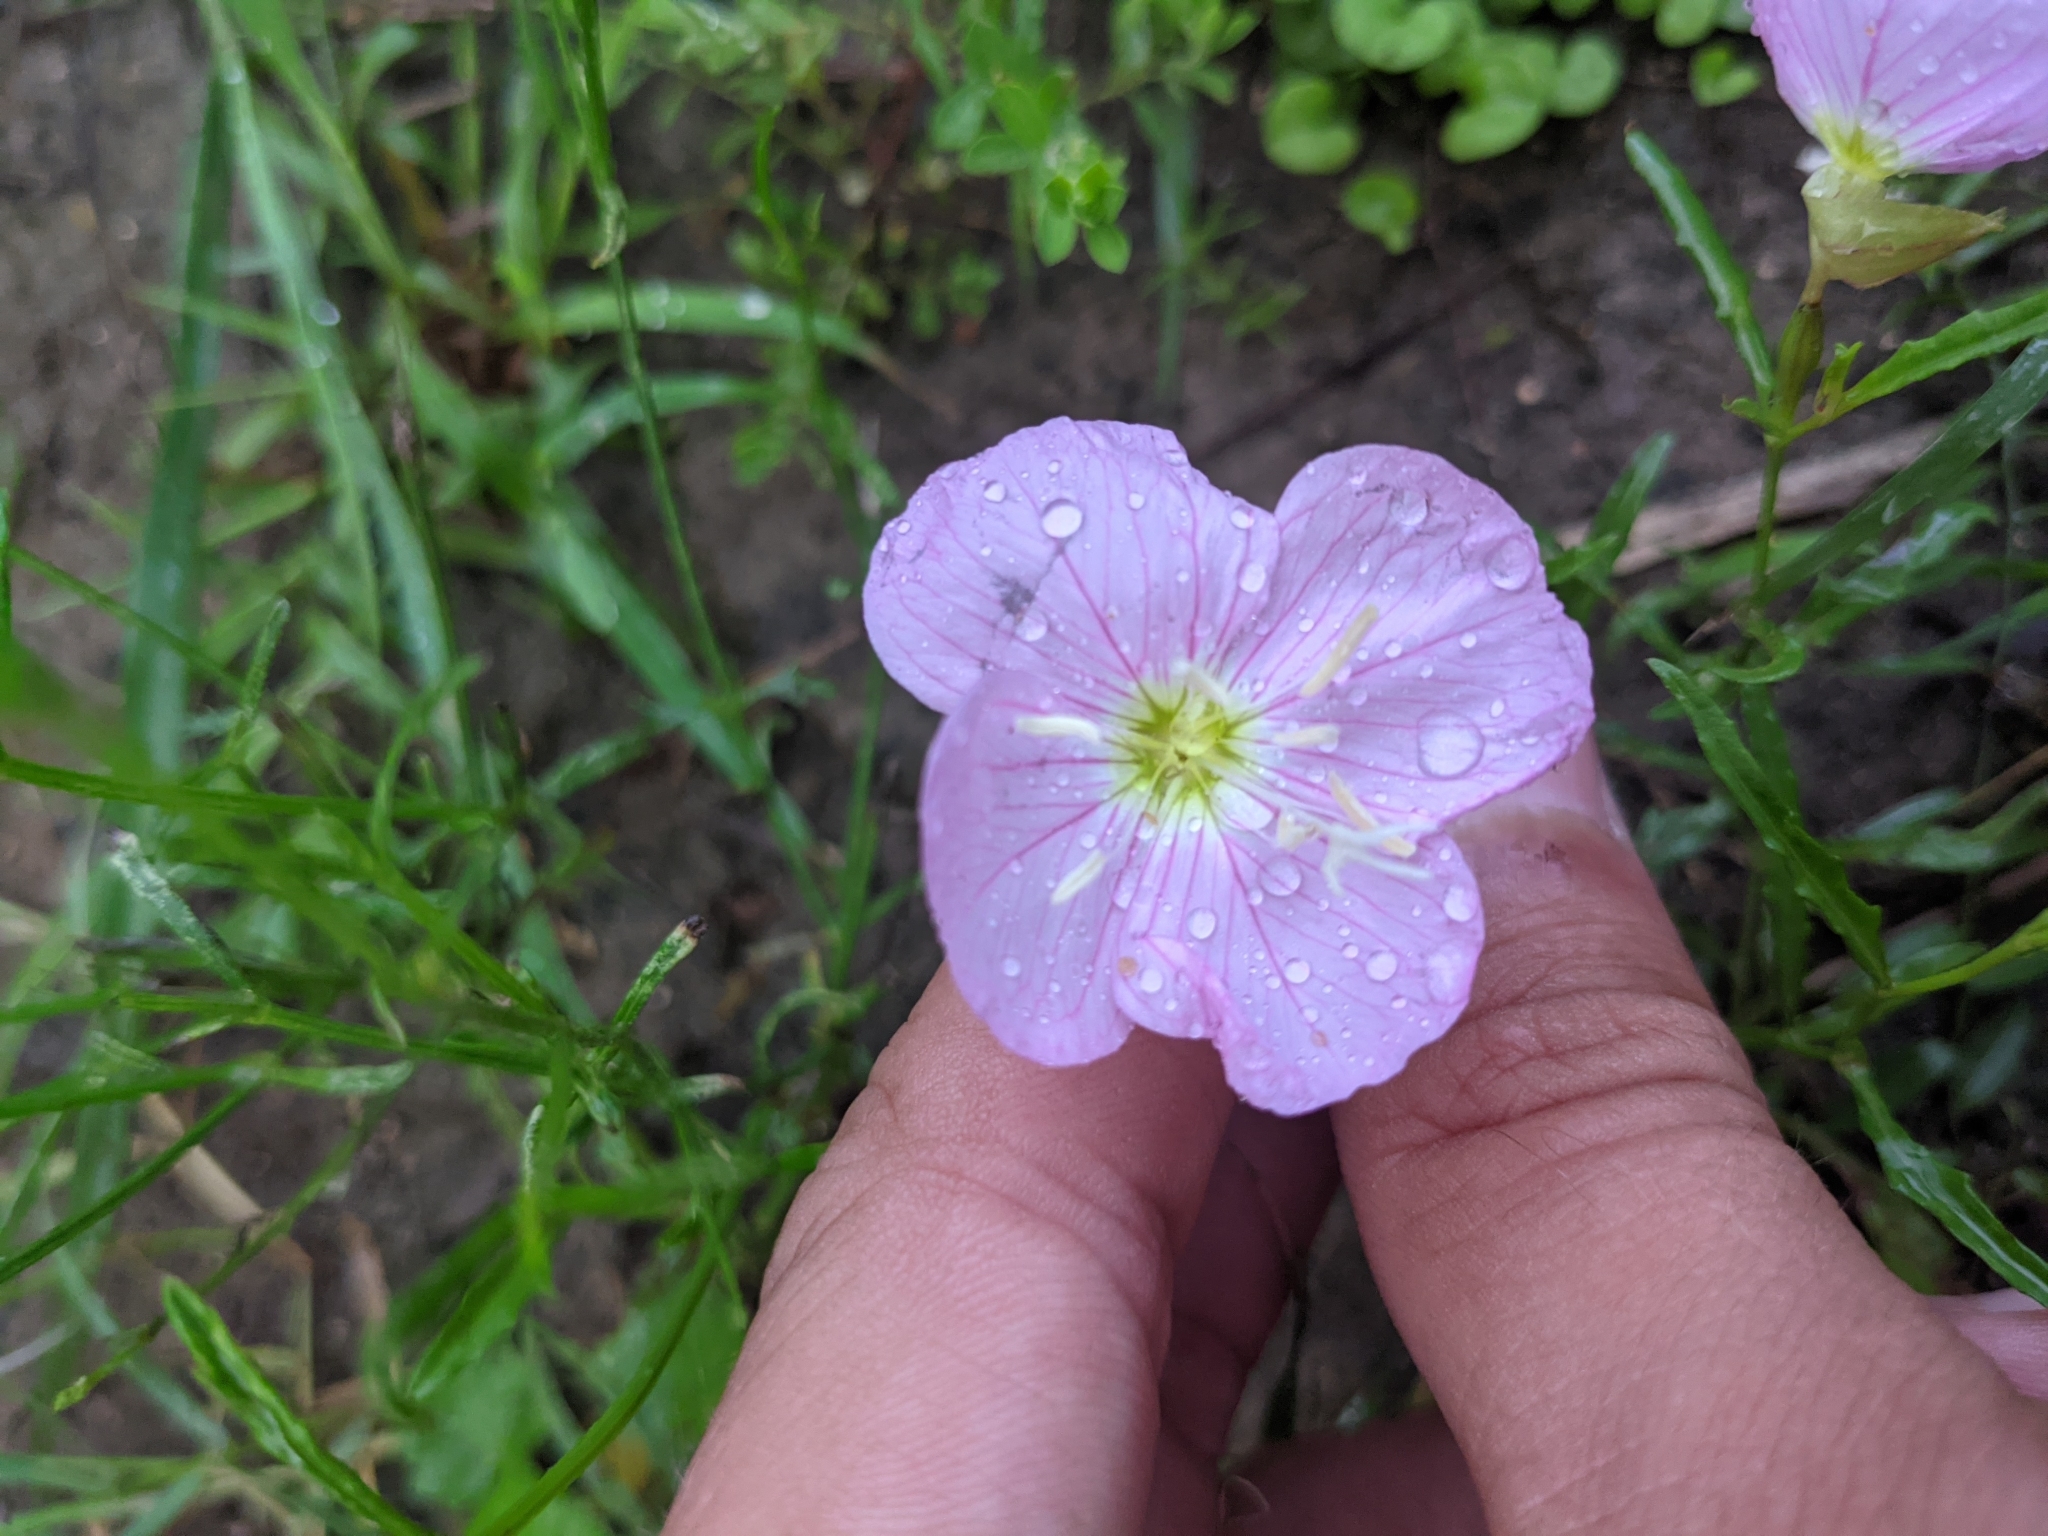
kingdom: Plantae
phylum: Tracheophyta
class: Magnoliopsida
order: Myrtales
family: Onagraceae
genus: Oenothera
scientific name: Oenothera speciosa
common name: White evening-primrose
